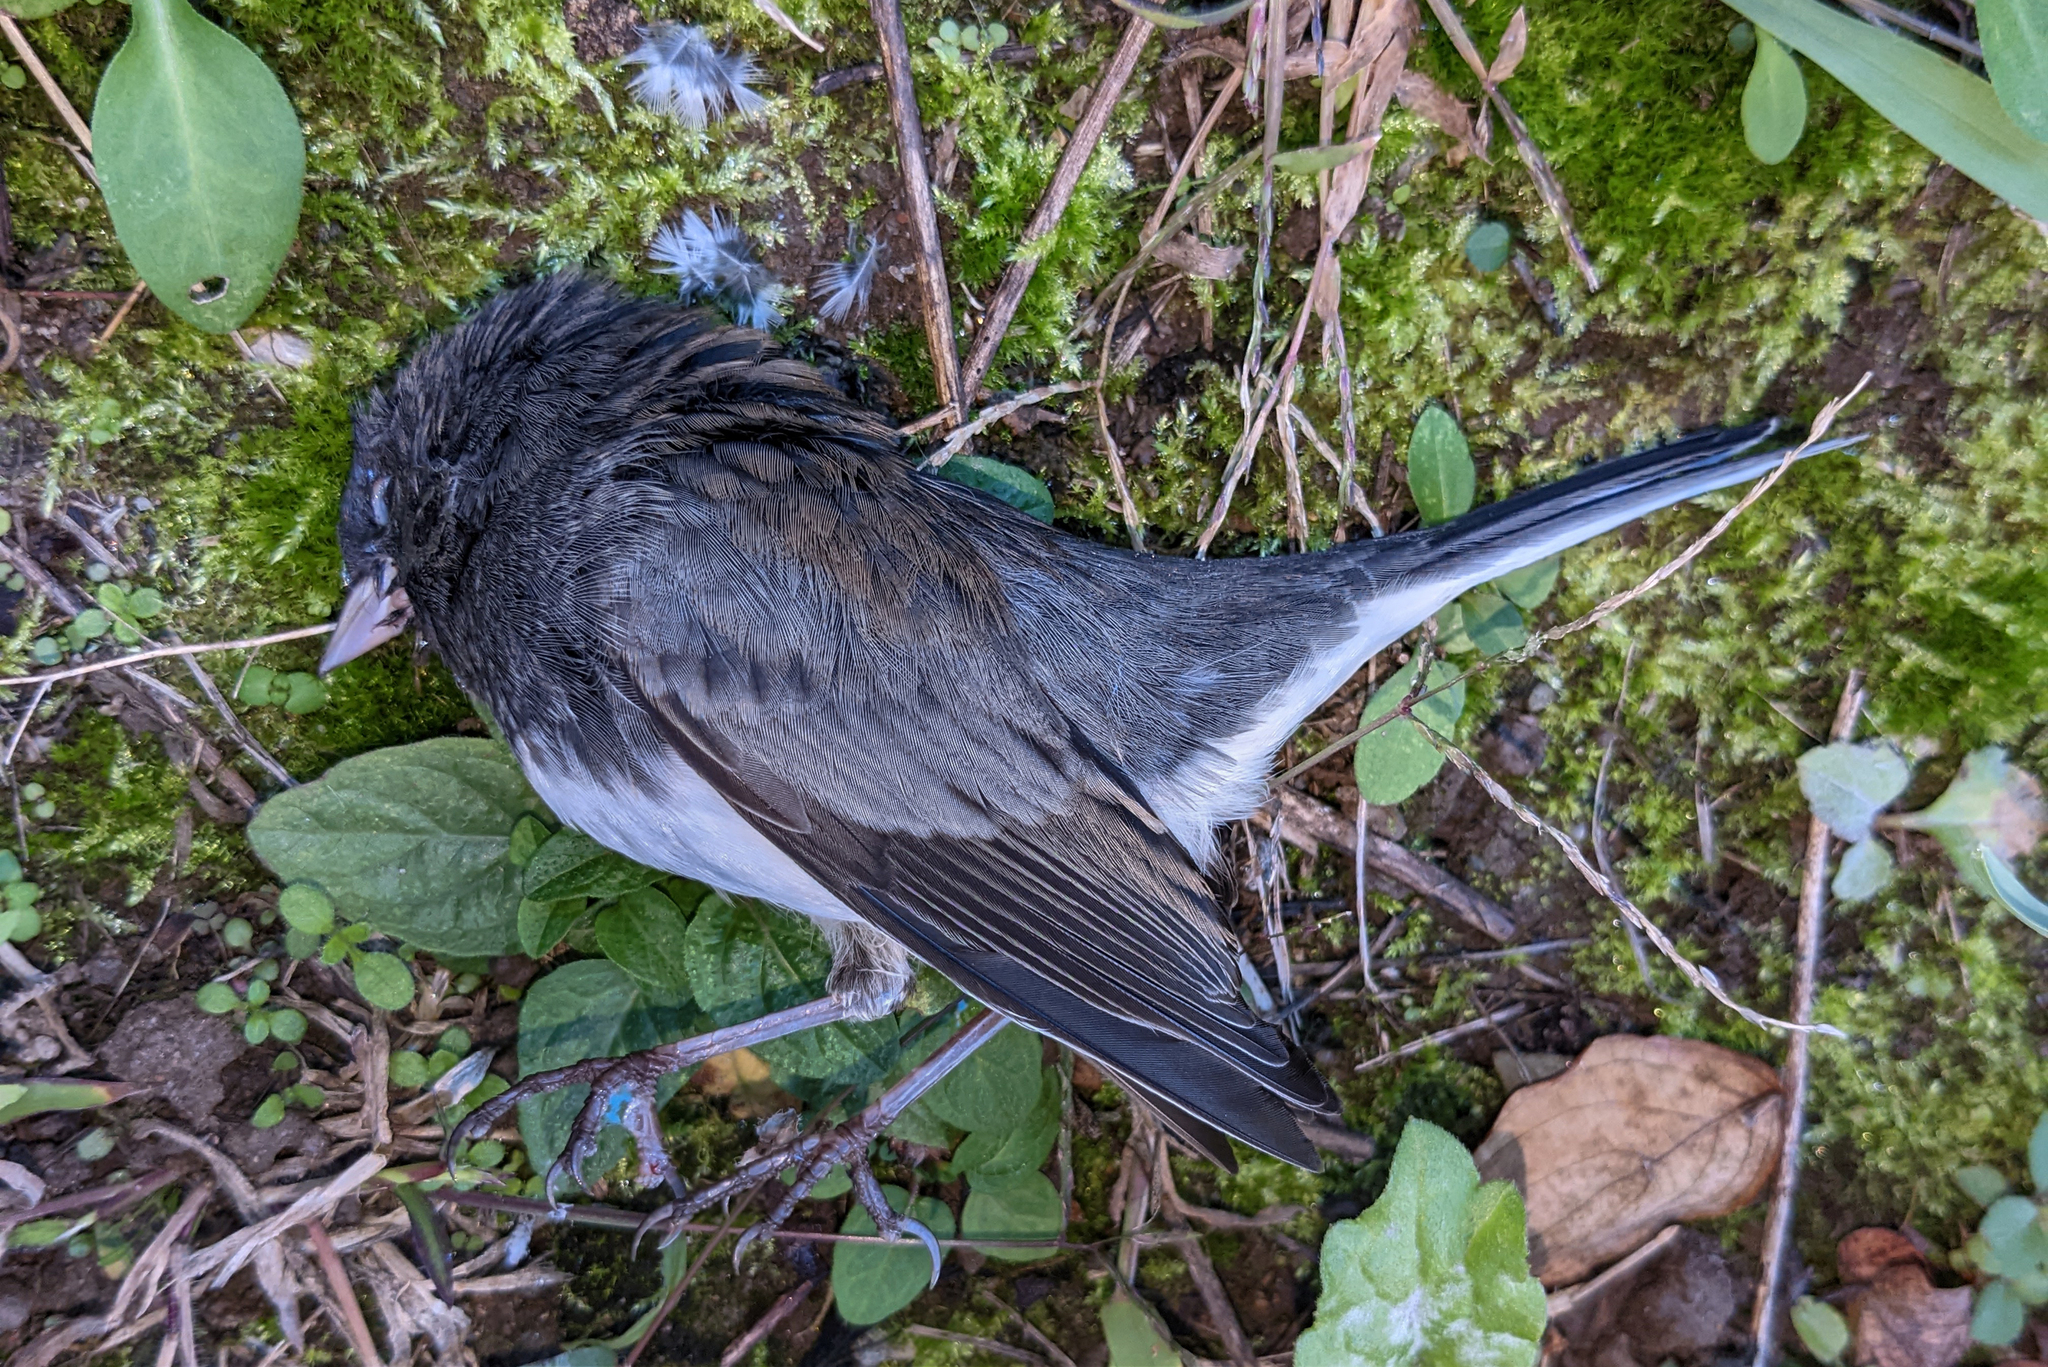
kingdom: Animalia
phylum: Chordata
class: Aves
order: Passeriformes
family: Passerellidae
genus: Junco
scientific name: Junco hyemalis
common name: Dark-eyed junco
